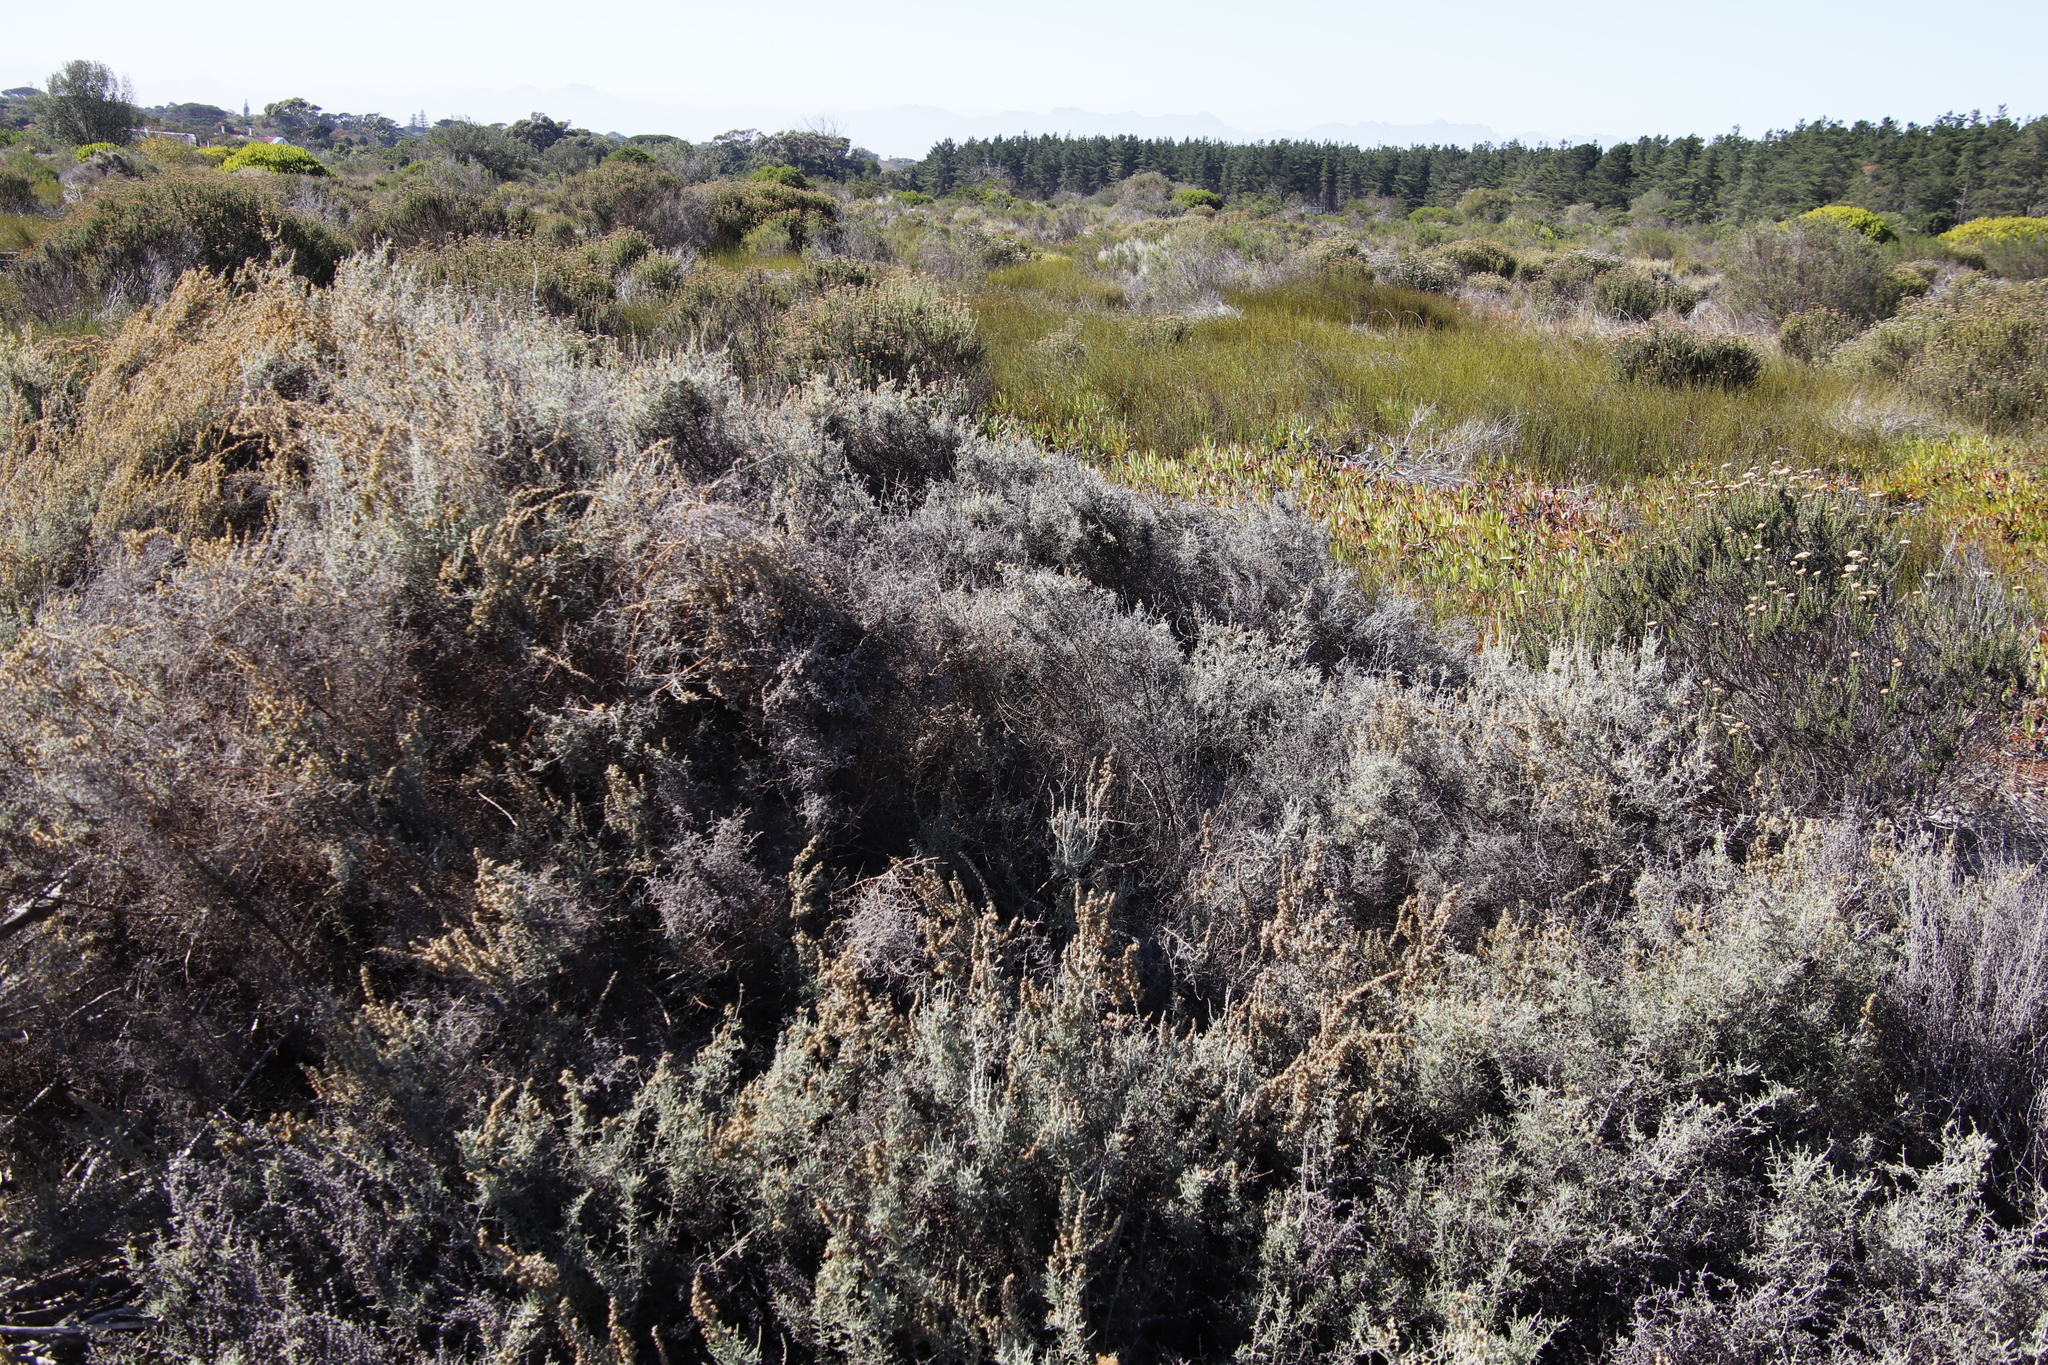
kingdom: Plantae
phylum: Tracheophyta
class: Magnoliopsida
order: Asterales
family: Asteraceae
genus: Seriphium
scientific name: Seriphium plumosum
